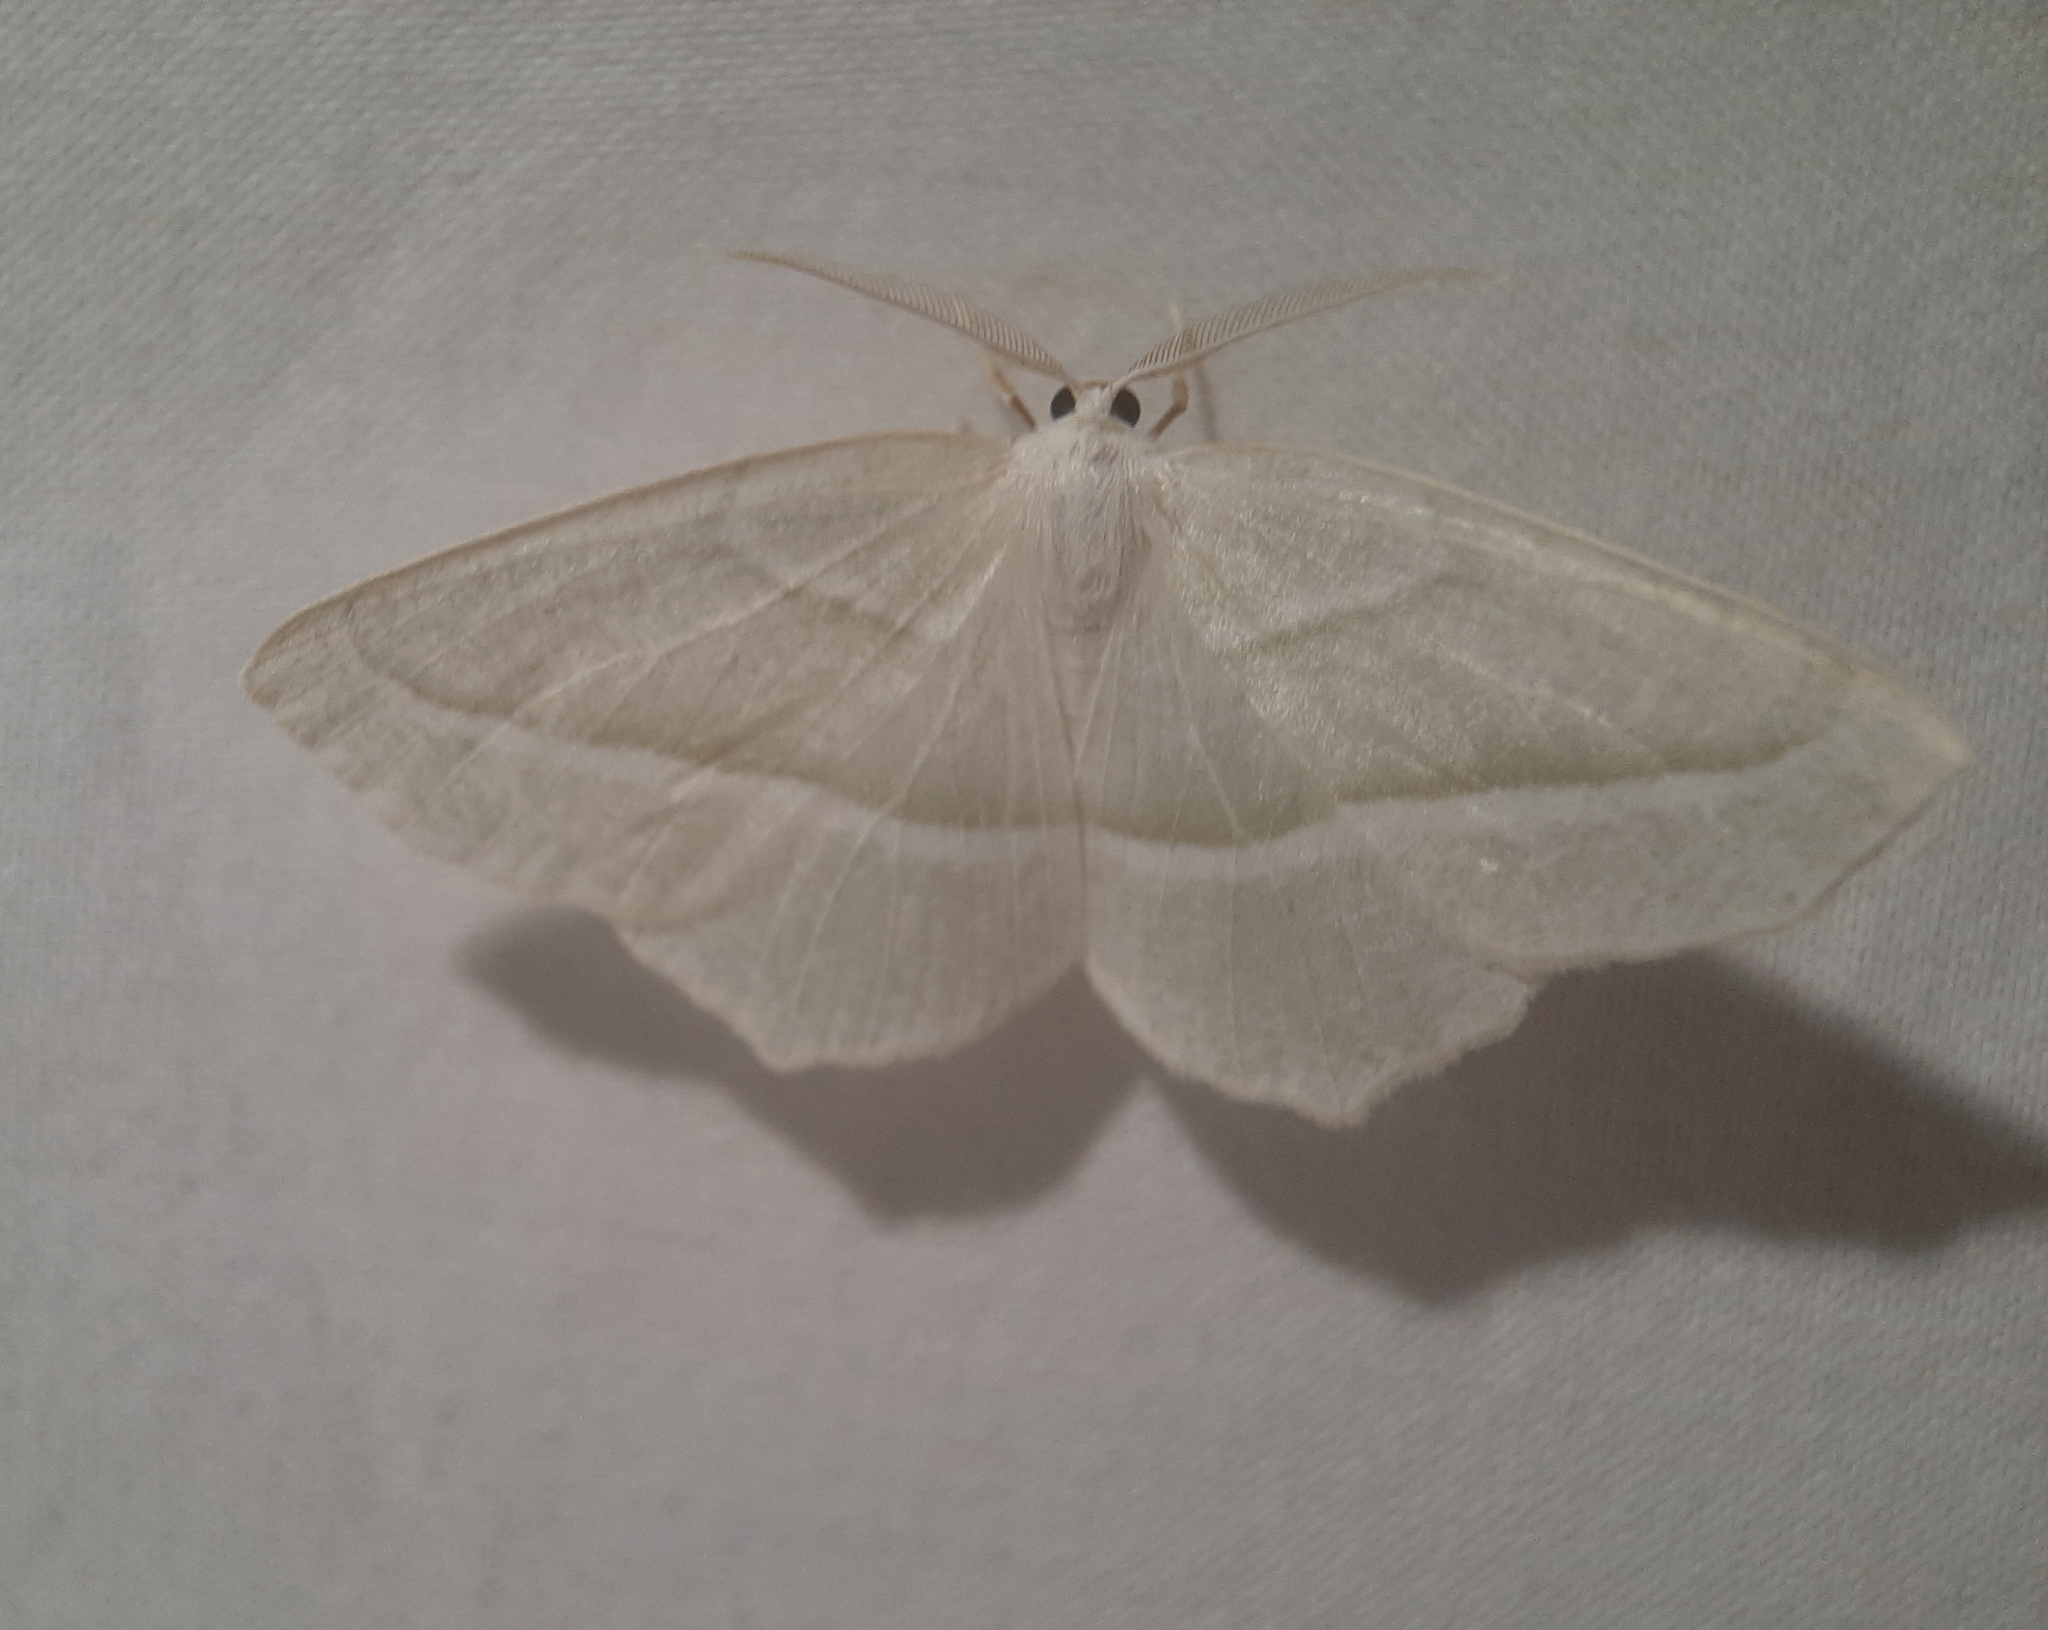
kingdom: Animalia
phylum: Arthropoda
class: Insecta
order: Lepidoptera
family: Geometridae
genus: Campaea
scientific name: Campaea perlata
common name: Fringed looper
